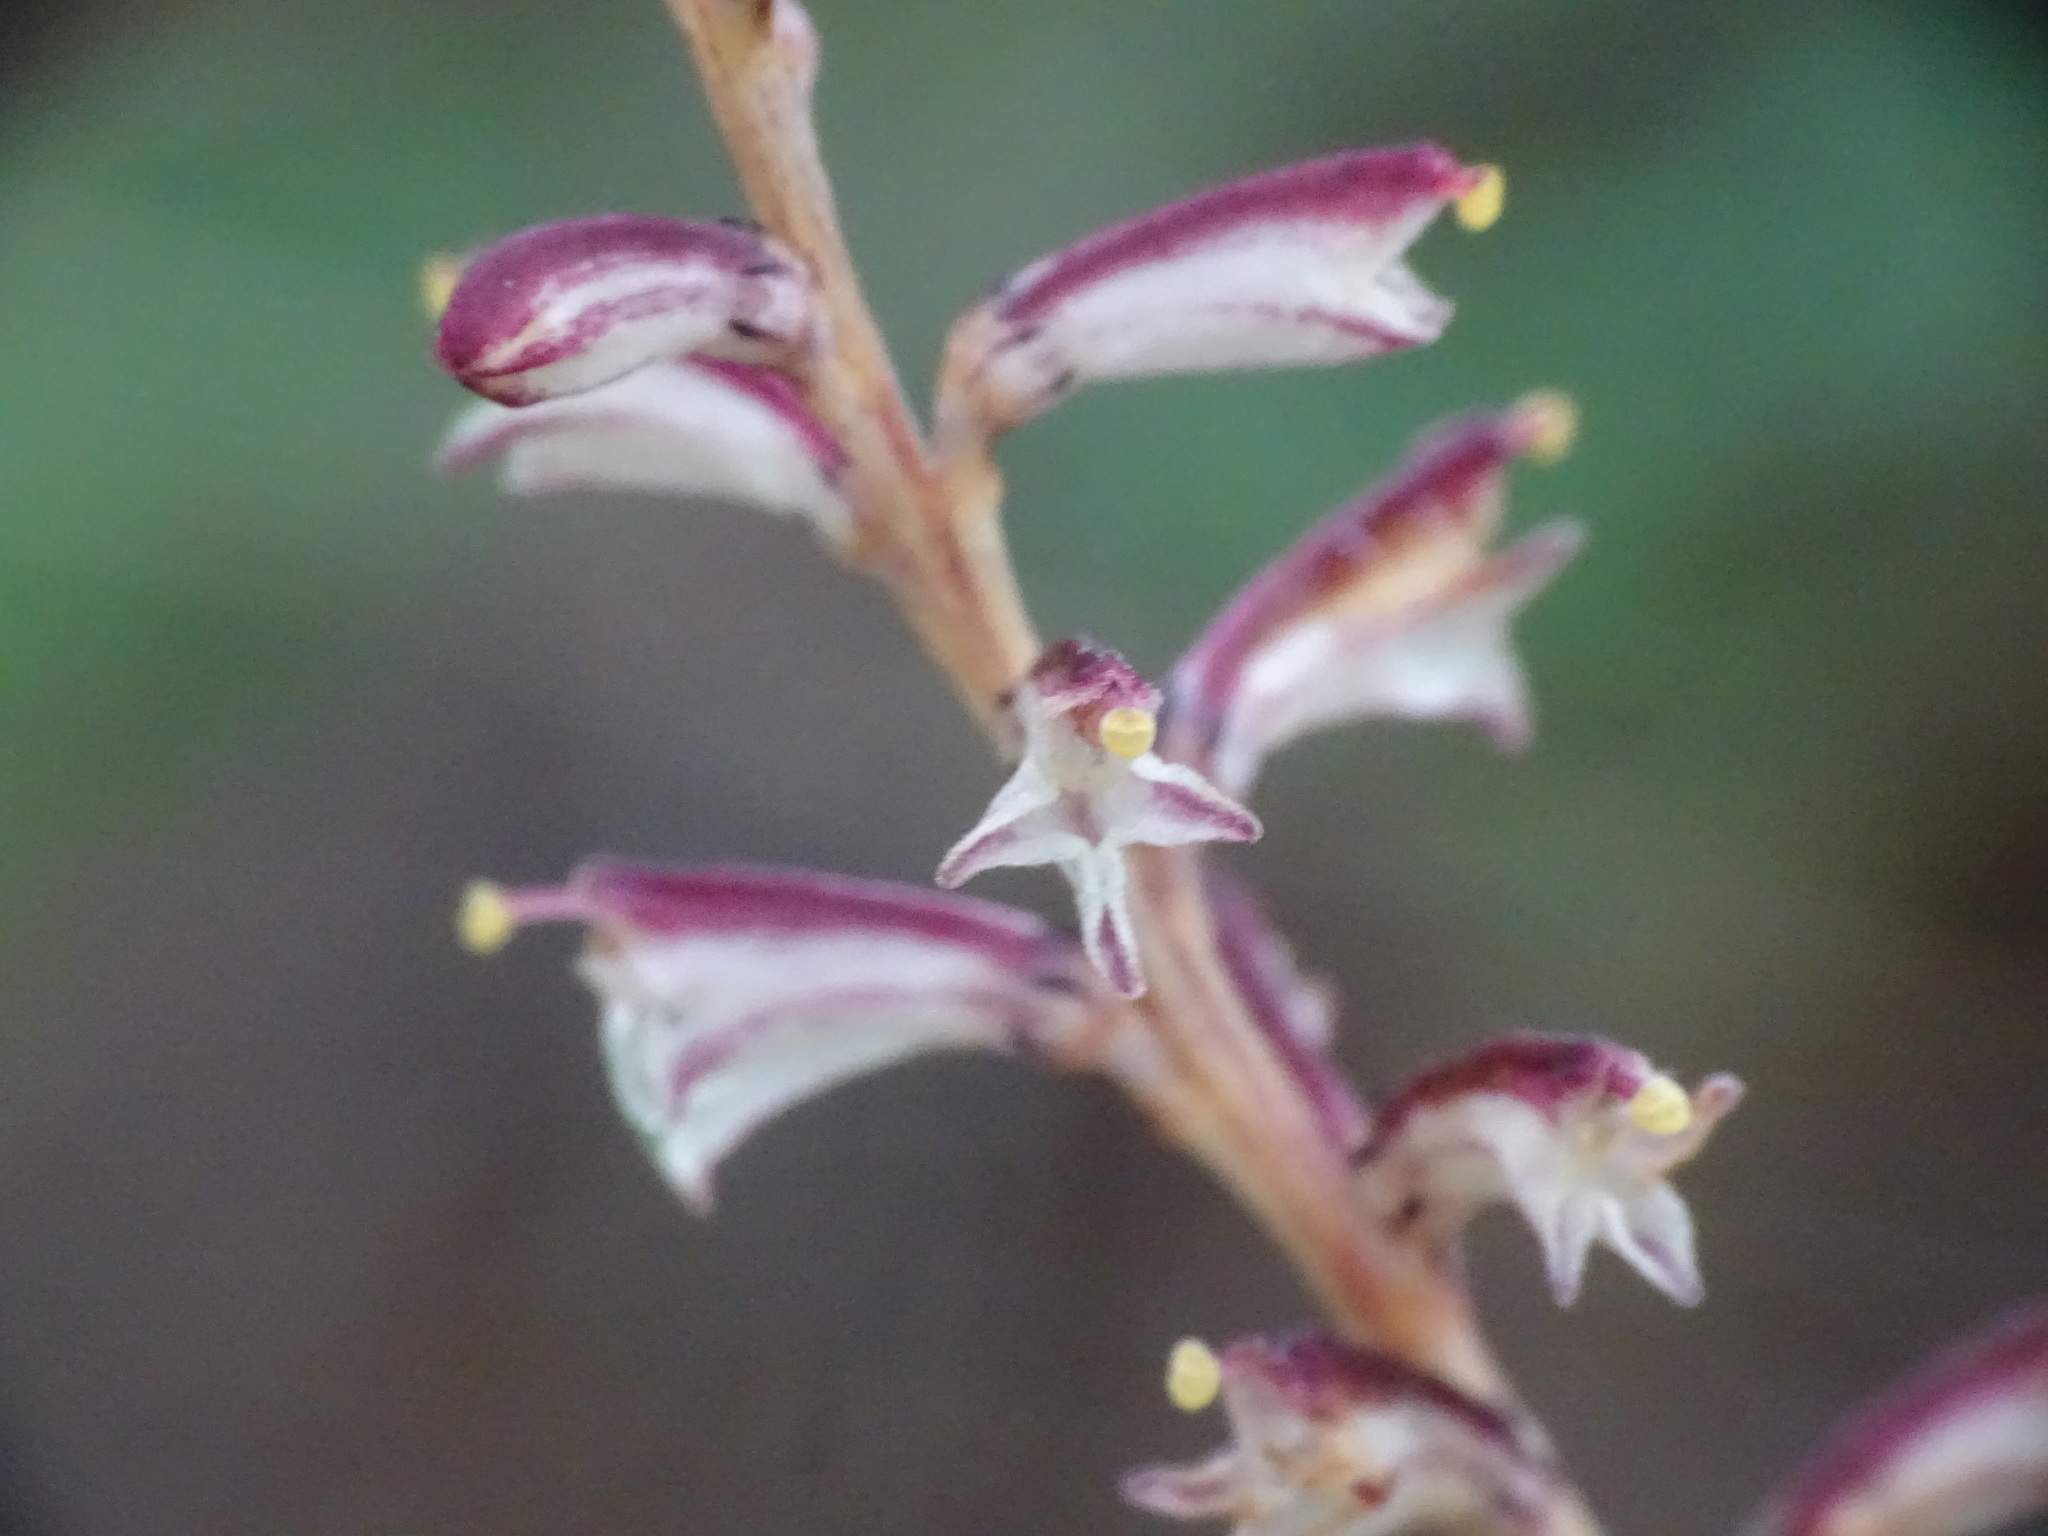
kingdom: Plantae
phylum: Tracheophyta
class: Magnoliopsida
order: Lamiales
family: Orobanchaceae
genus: Epifagus
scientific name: Epifagus virginiana
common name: Beechdrops
